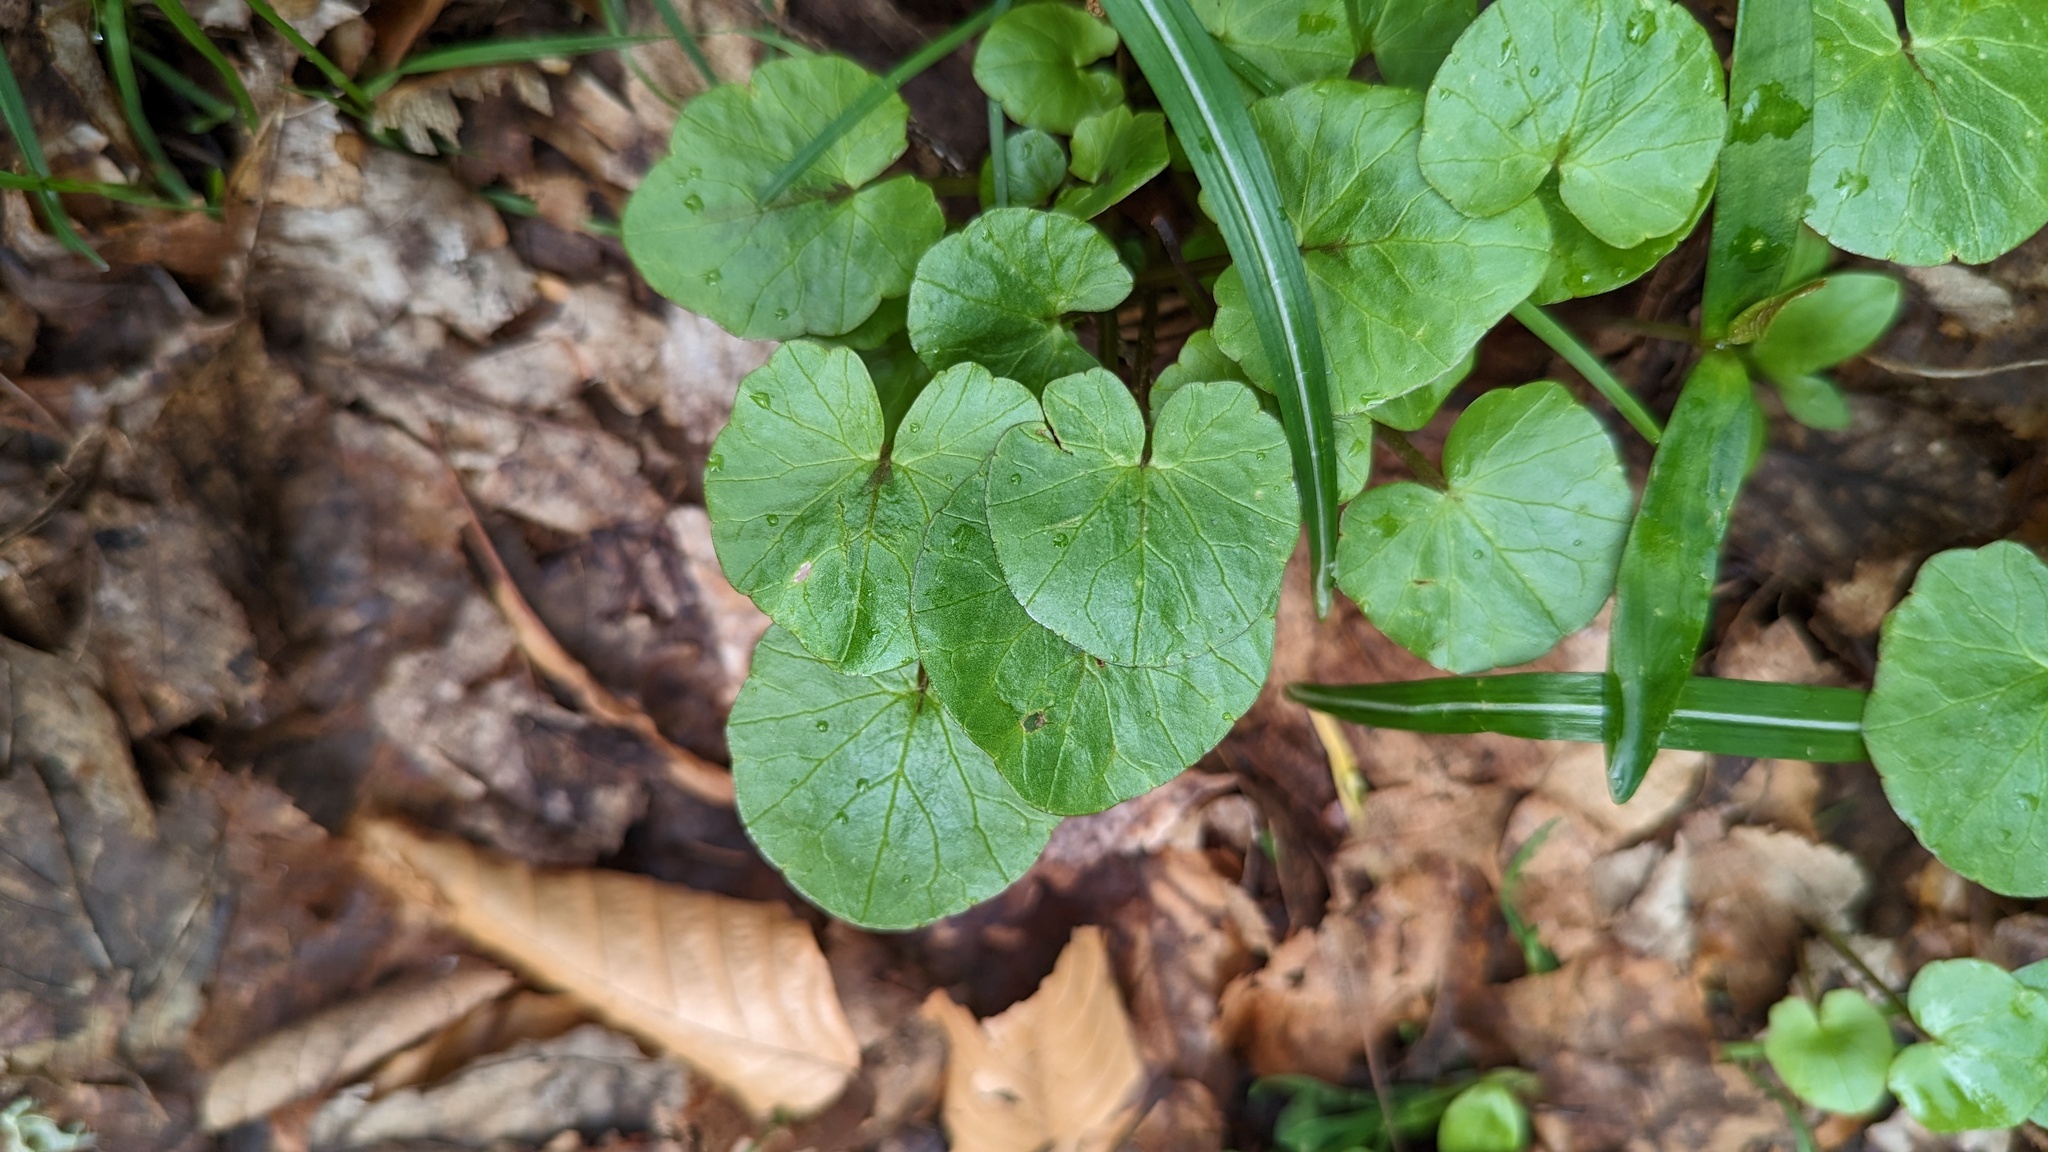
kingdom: Plantae
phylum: Tracheophyta
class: Magnoliopsida
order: Ranunculales
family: Ranunculaceae
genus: Ficaria
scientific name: Ficaria verna
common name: Lesser celandine
